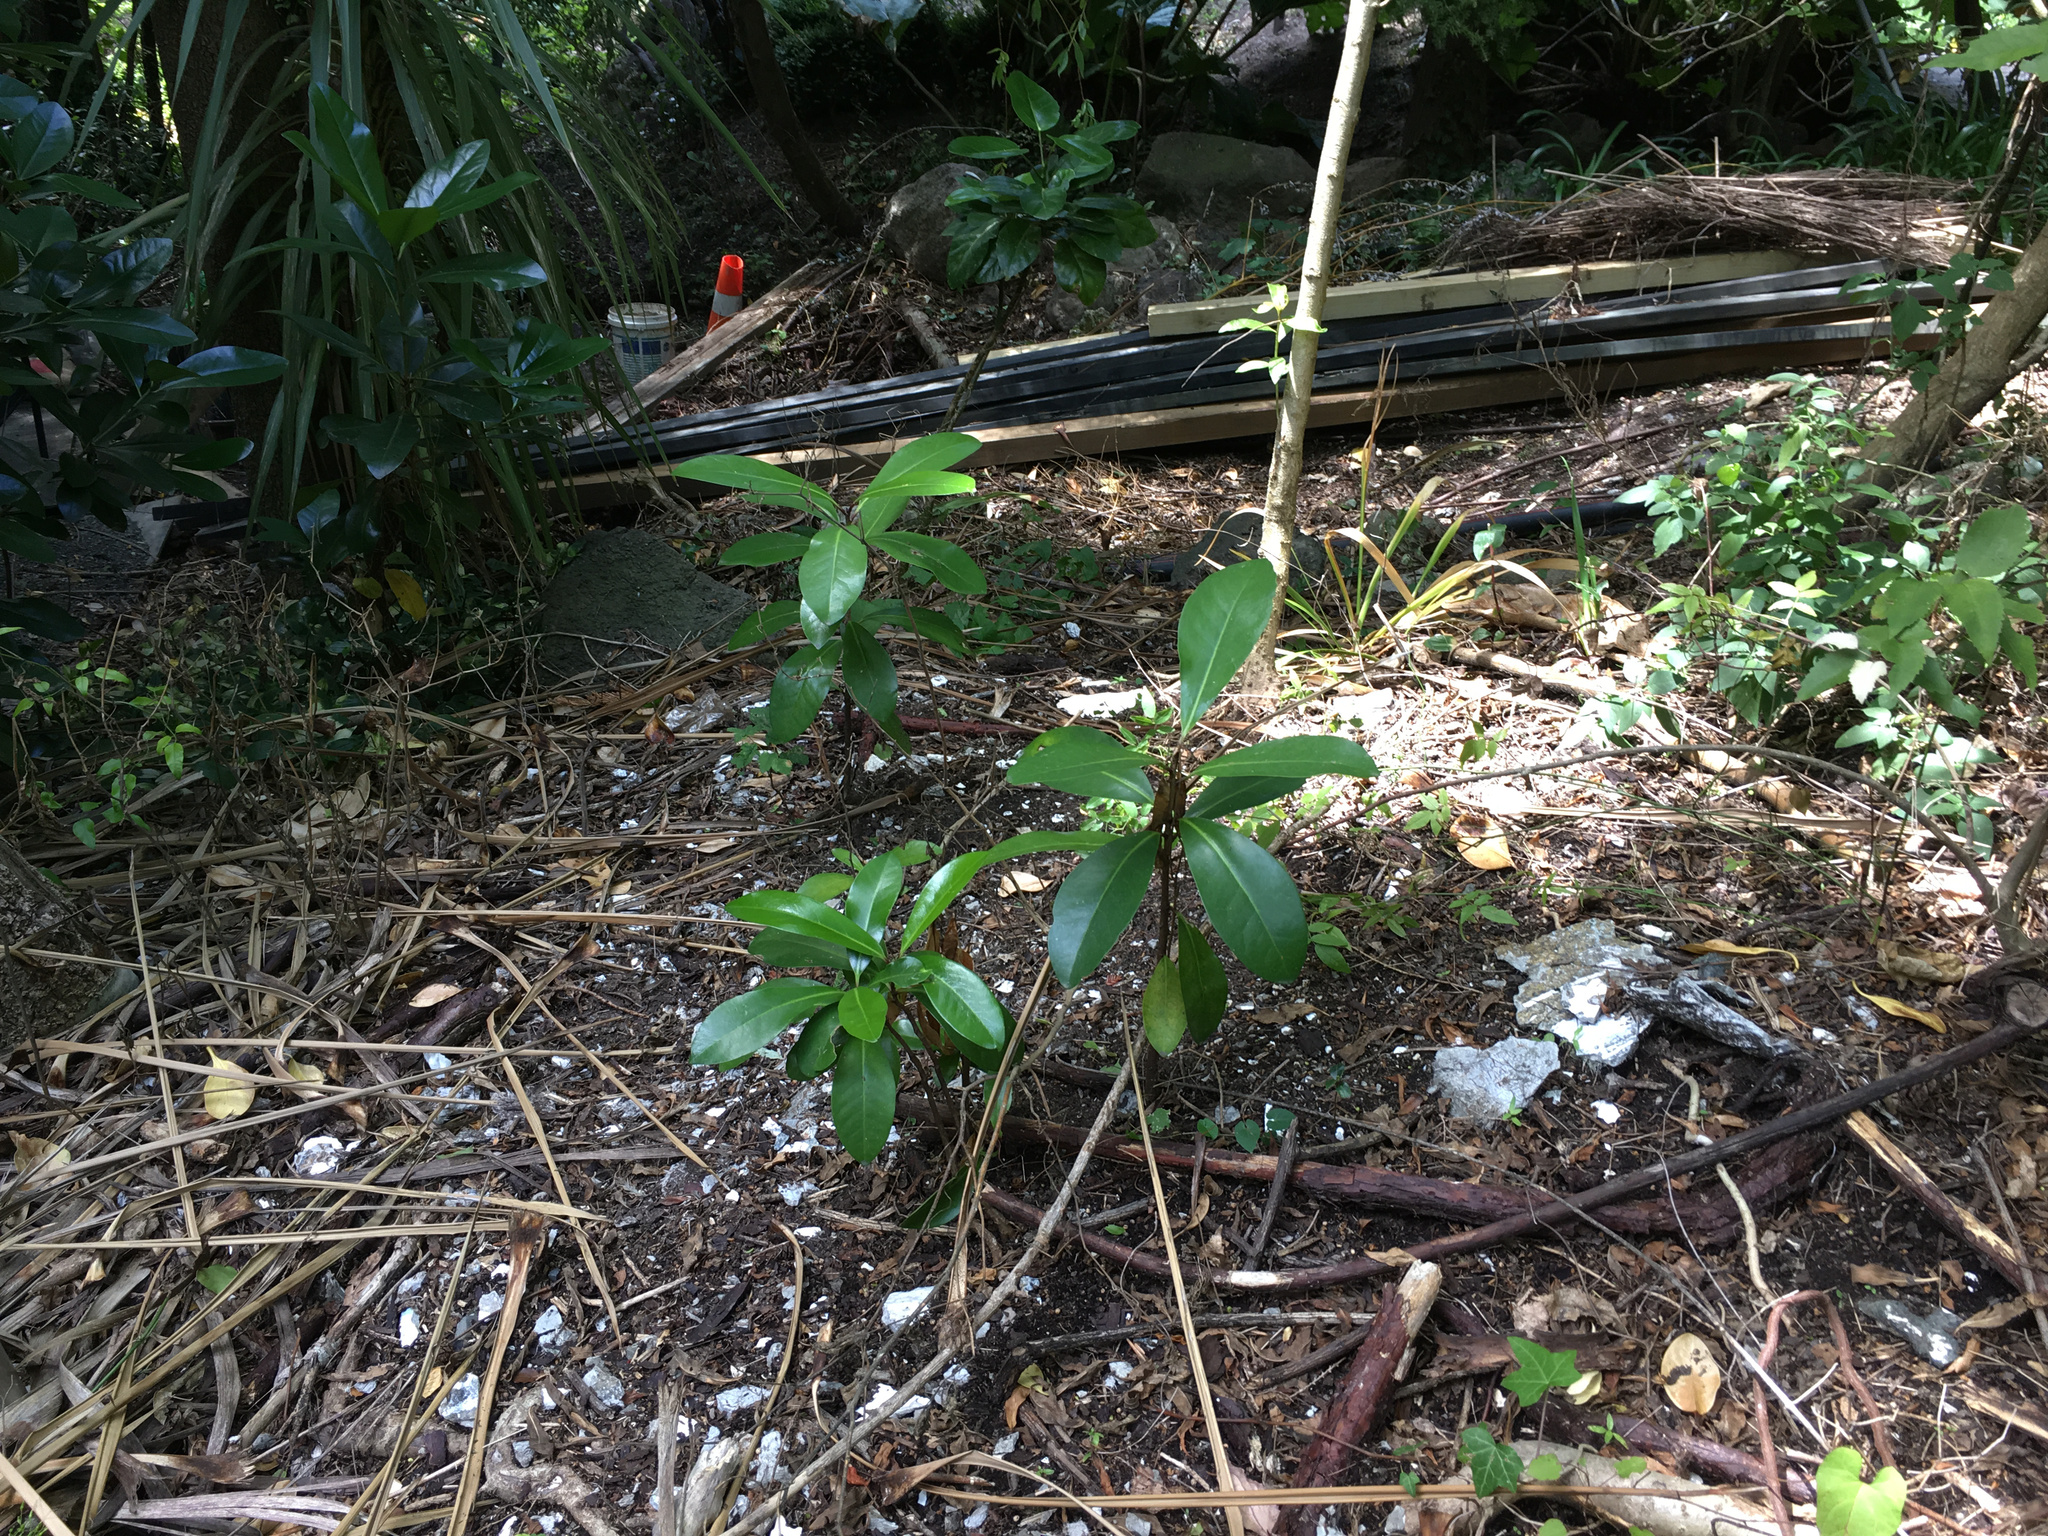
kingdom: Plantae
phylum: Tracheophyta
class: Magnoliopsida
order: Cucurbitales
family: Corynocarpaceae
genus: Corynocarpus
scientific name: Corynocarpus laevigatus
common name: New zealand laurel
